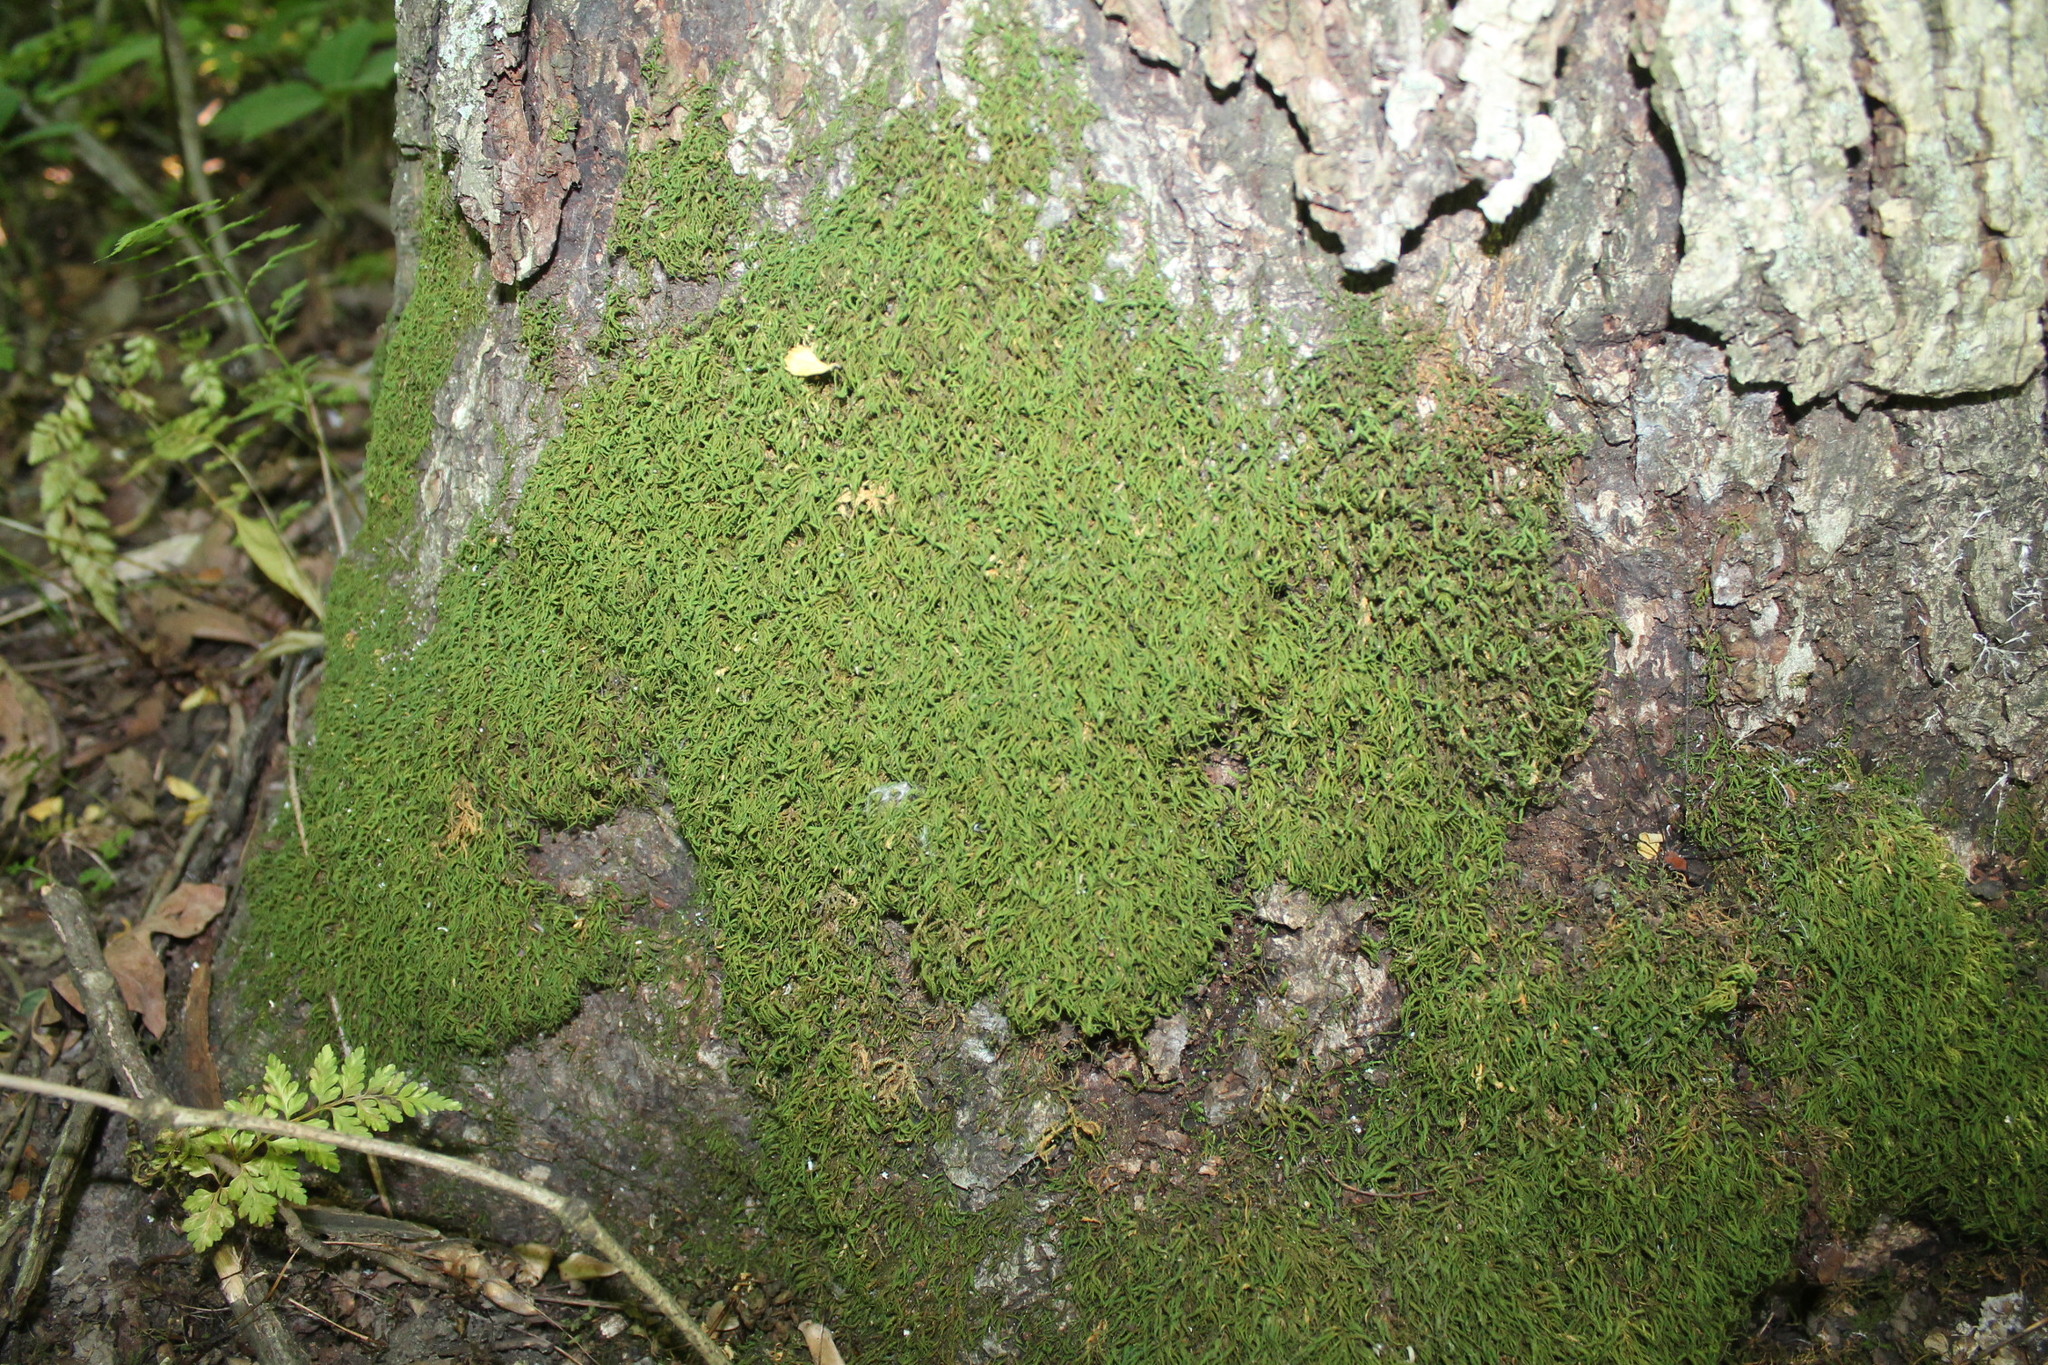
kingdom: Plantae
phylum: Bryophyta
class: Bryopsida
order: Hypnales
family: Neckeraceae
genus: Pseudanomodon
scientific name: Pseudanomodon attenuatus
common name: Tree-skirt moss
